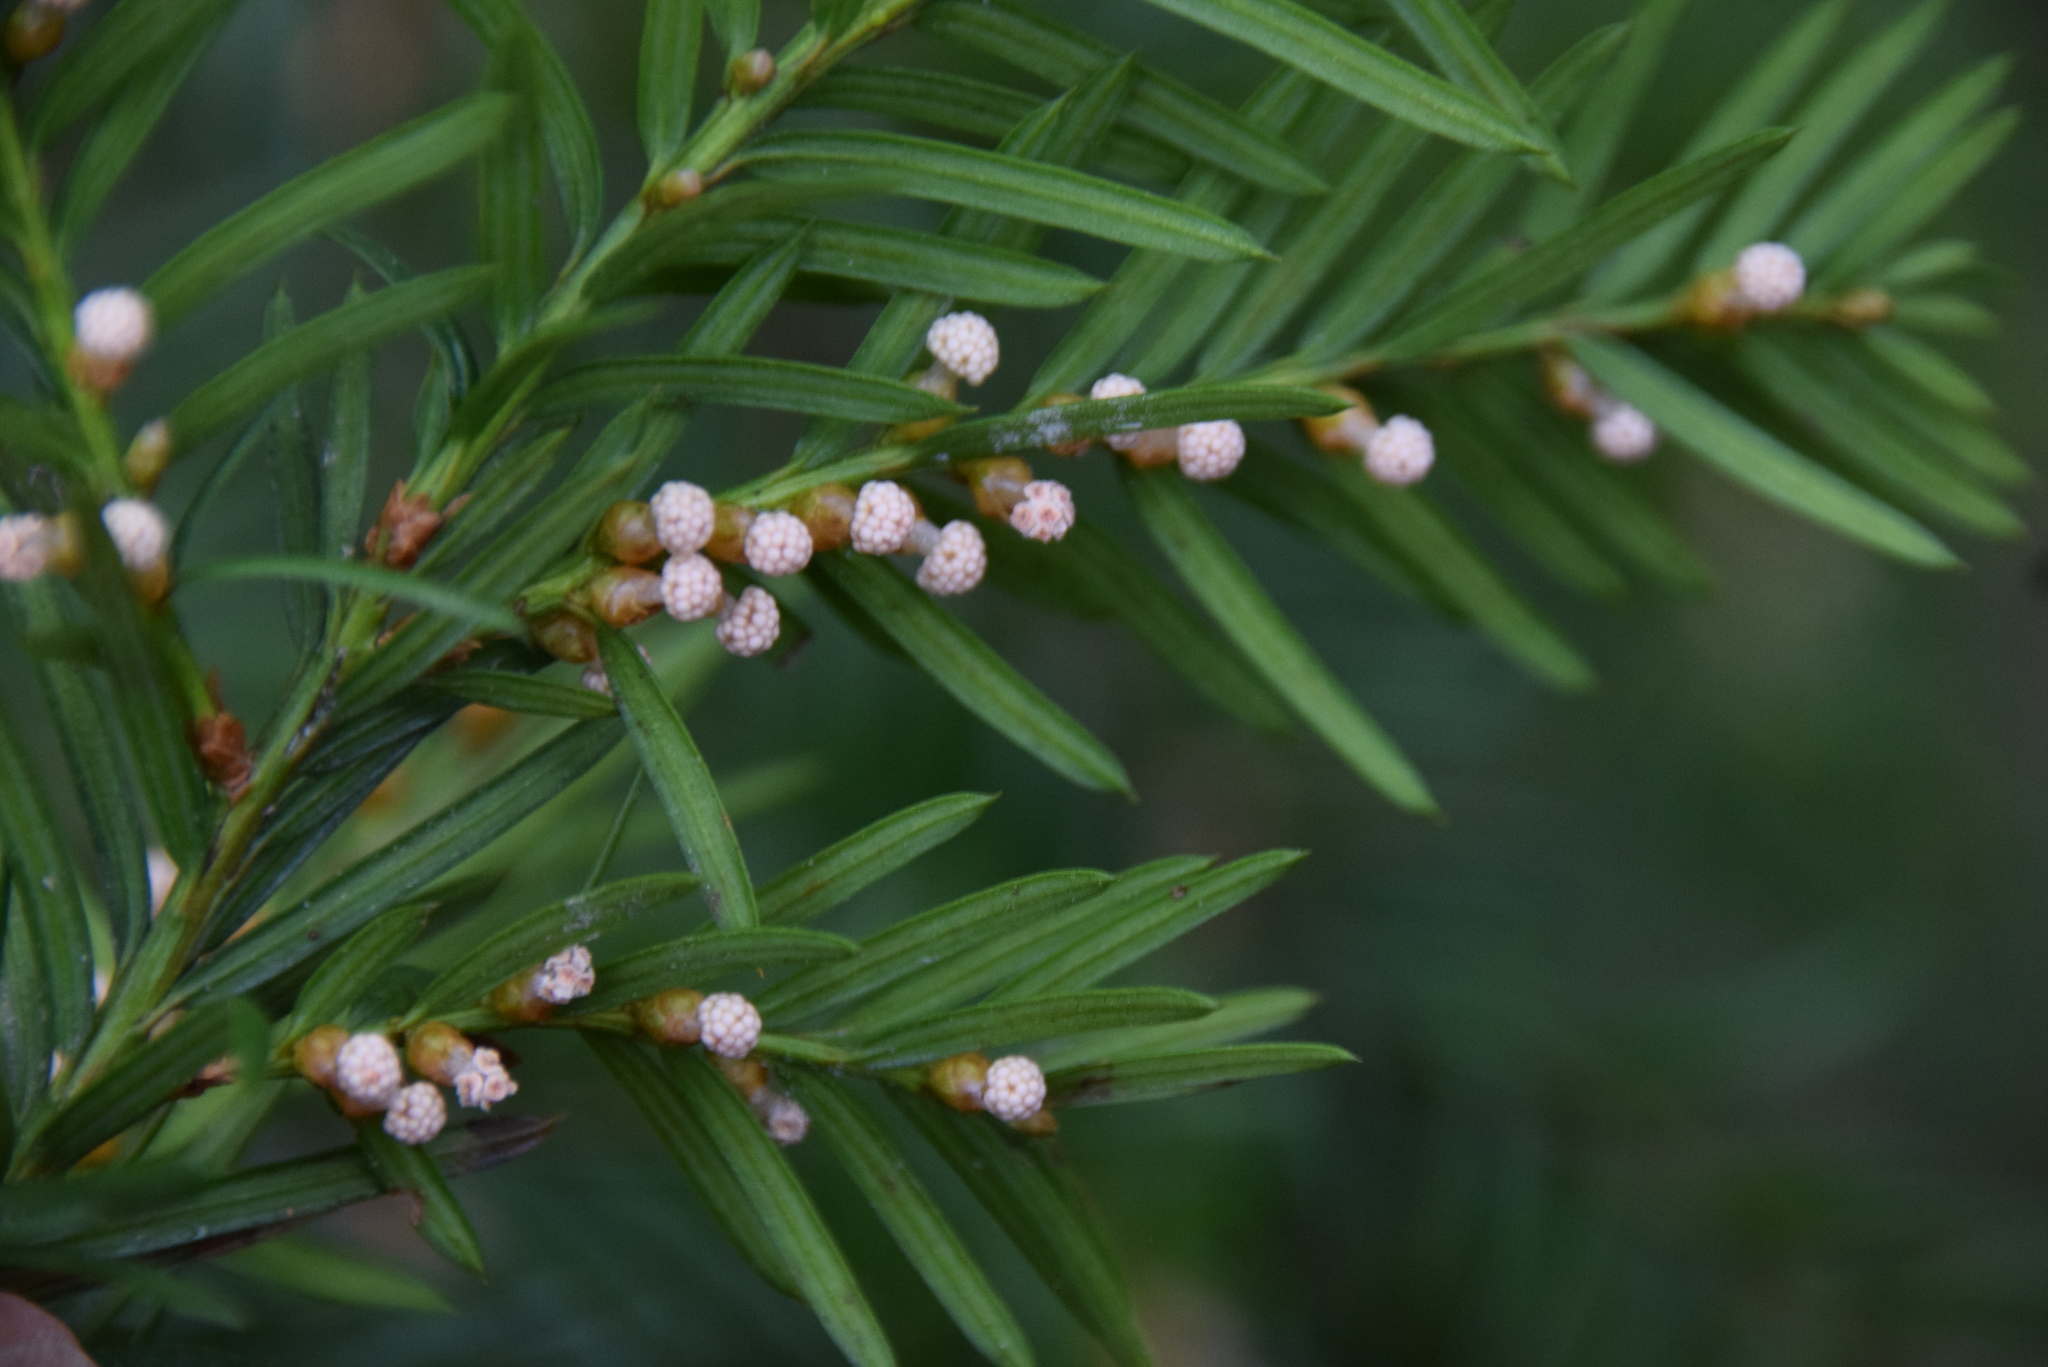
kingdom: Plantae
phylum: Tracheophyta
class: Pinopsida
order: Pinales
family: Taxaceae
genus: Taxus
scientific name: Taxus canadensis
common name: American yew
